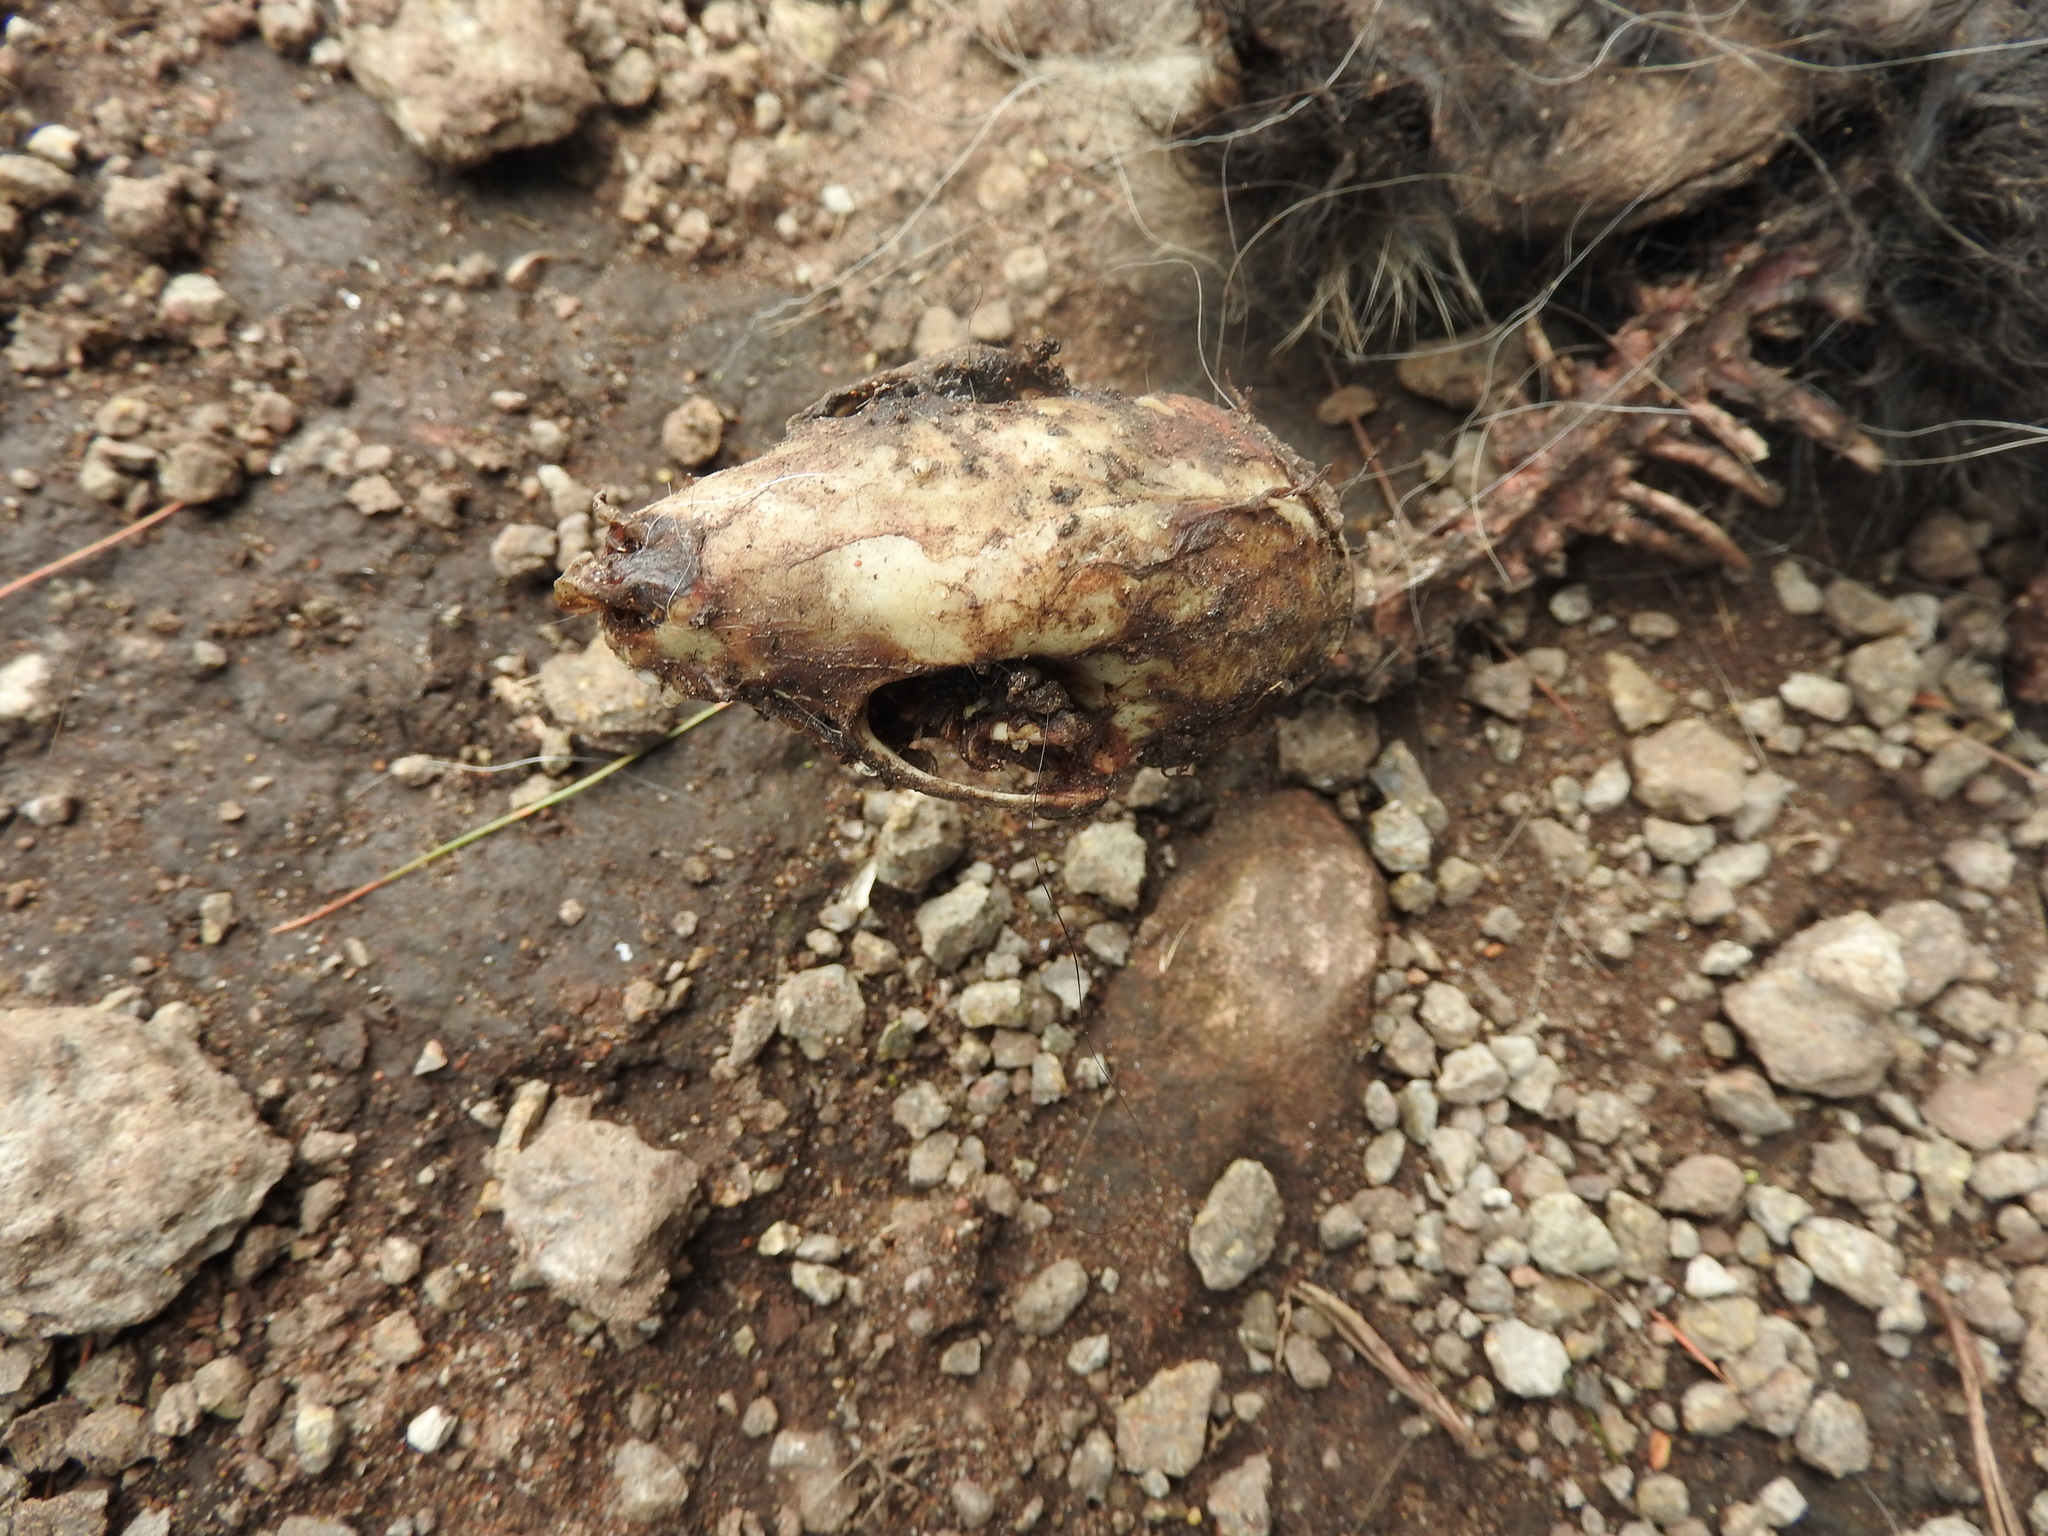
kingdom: Animalia
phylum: Chordata
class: Mammalia
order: Carnivora
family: Mephitidae
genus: Mephitis
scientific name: Mephitis macroura
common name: Hooded skunk
